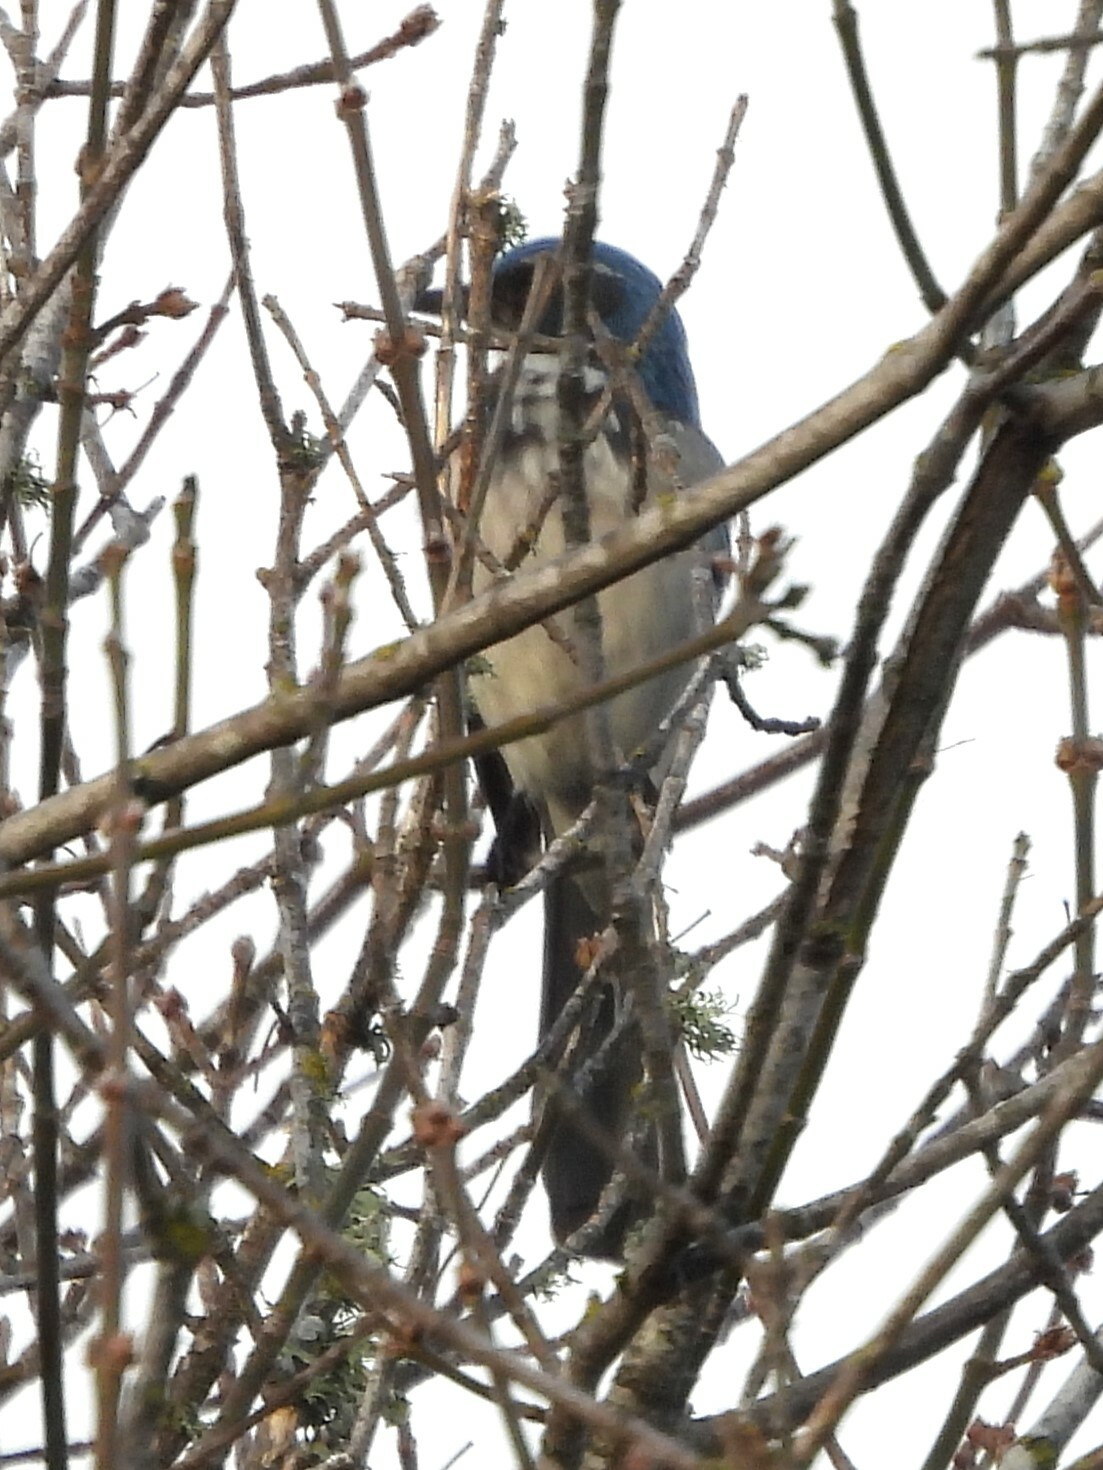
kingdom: Animalia
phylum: Chordata
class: Aves
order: Passeriformes
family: Corvidae
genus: Aphelocoma
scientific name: Aphelocoma californica
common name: California scrub-jay
